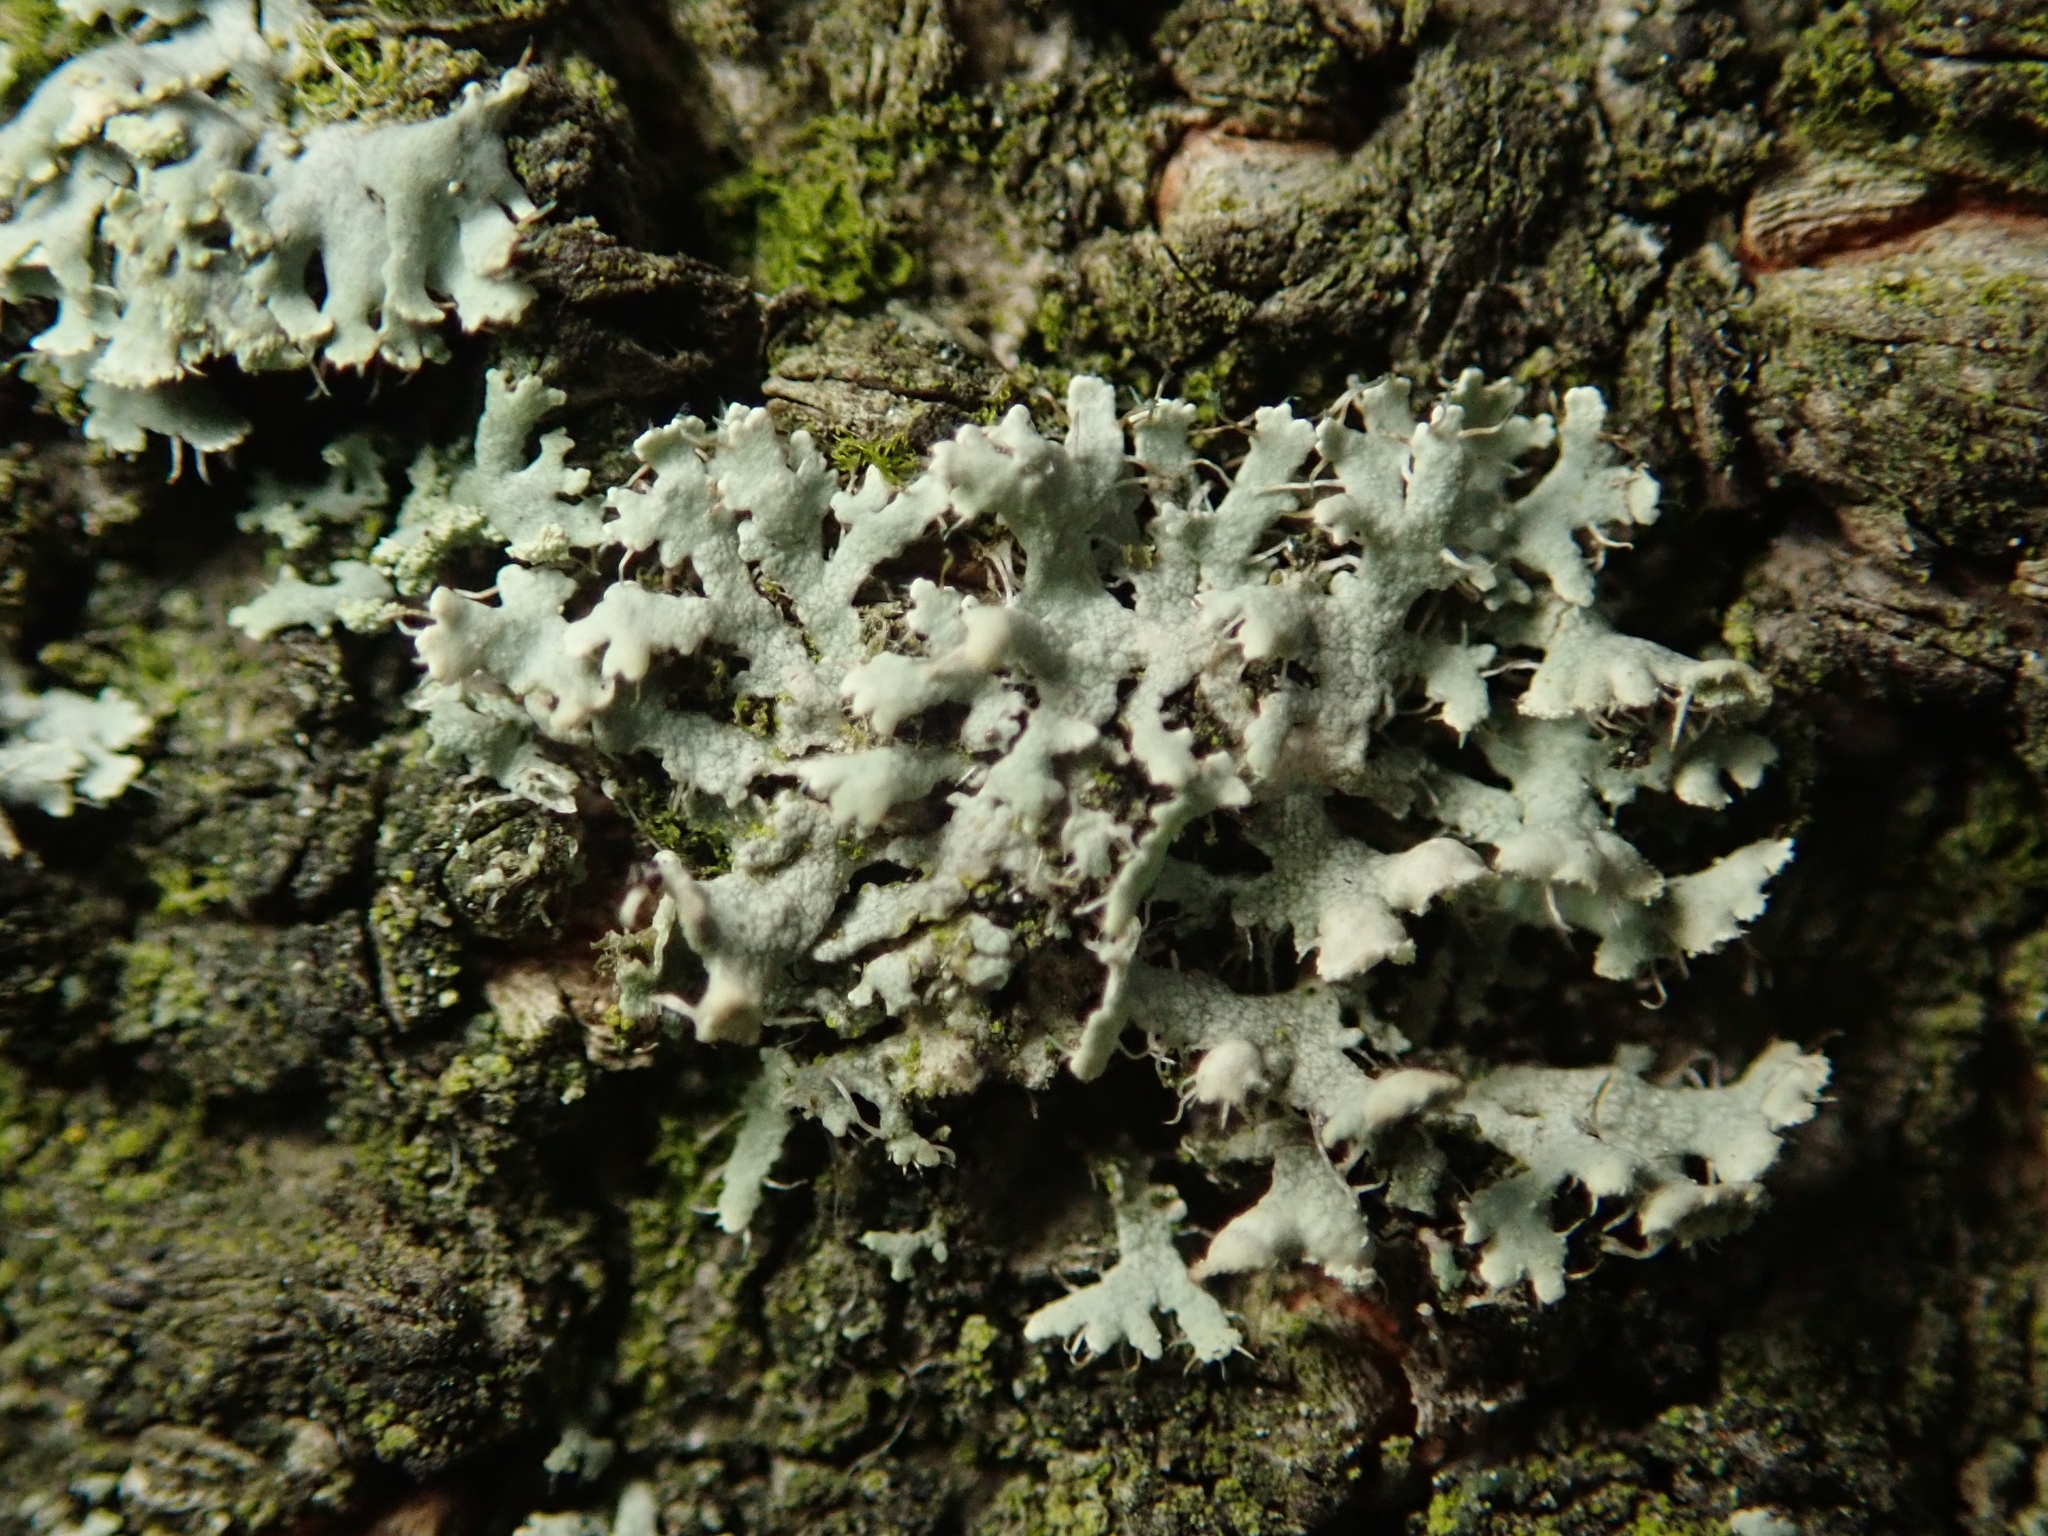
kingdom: Fungi
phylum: Ascomycota
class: Lecanoromycetes
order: Caliciales
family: Physciaceae
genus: Physcia
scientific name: Physcia adscendens
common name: Hooded rosette lichen
